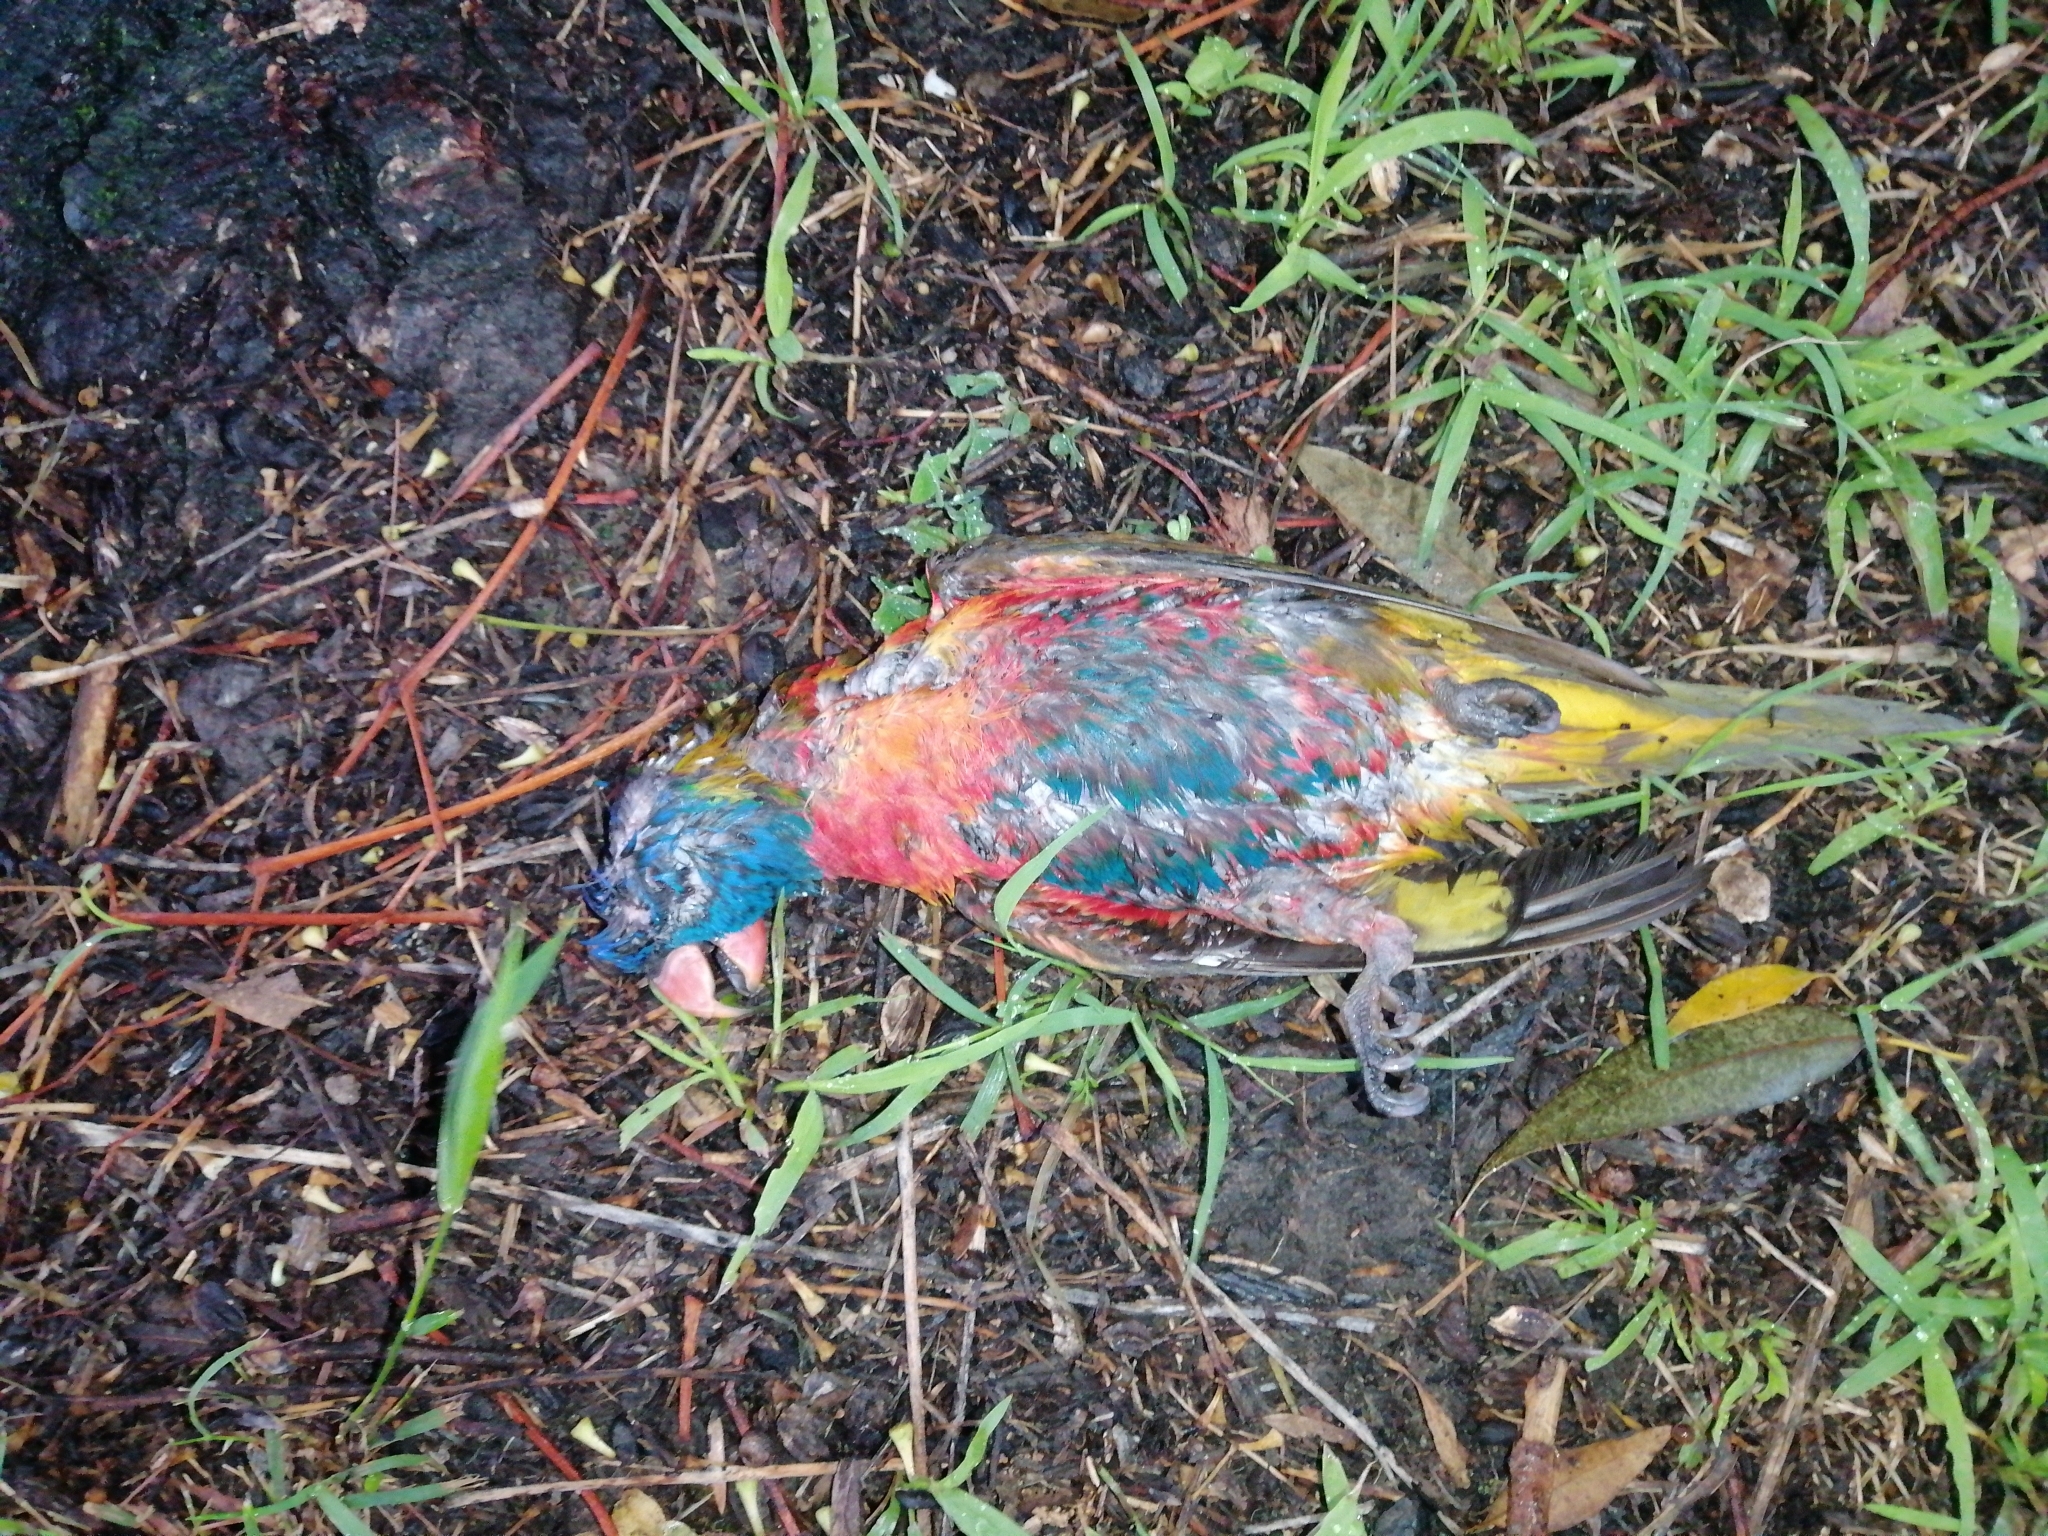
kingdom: Animalia
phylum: Chordata
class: Aves
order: Psittaciformes
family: Psittacidae
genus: Trichoglossus
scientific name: Trichoglossus haematodus
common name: Coconut lorikeet
